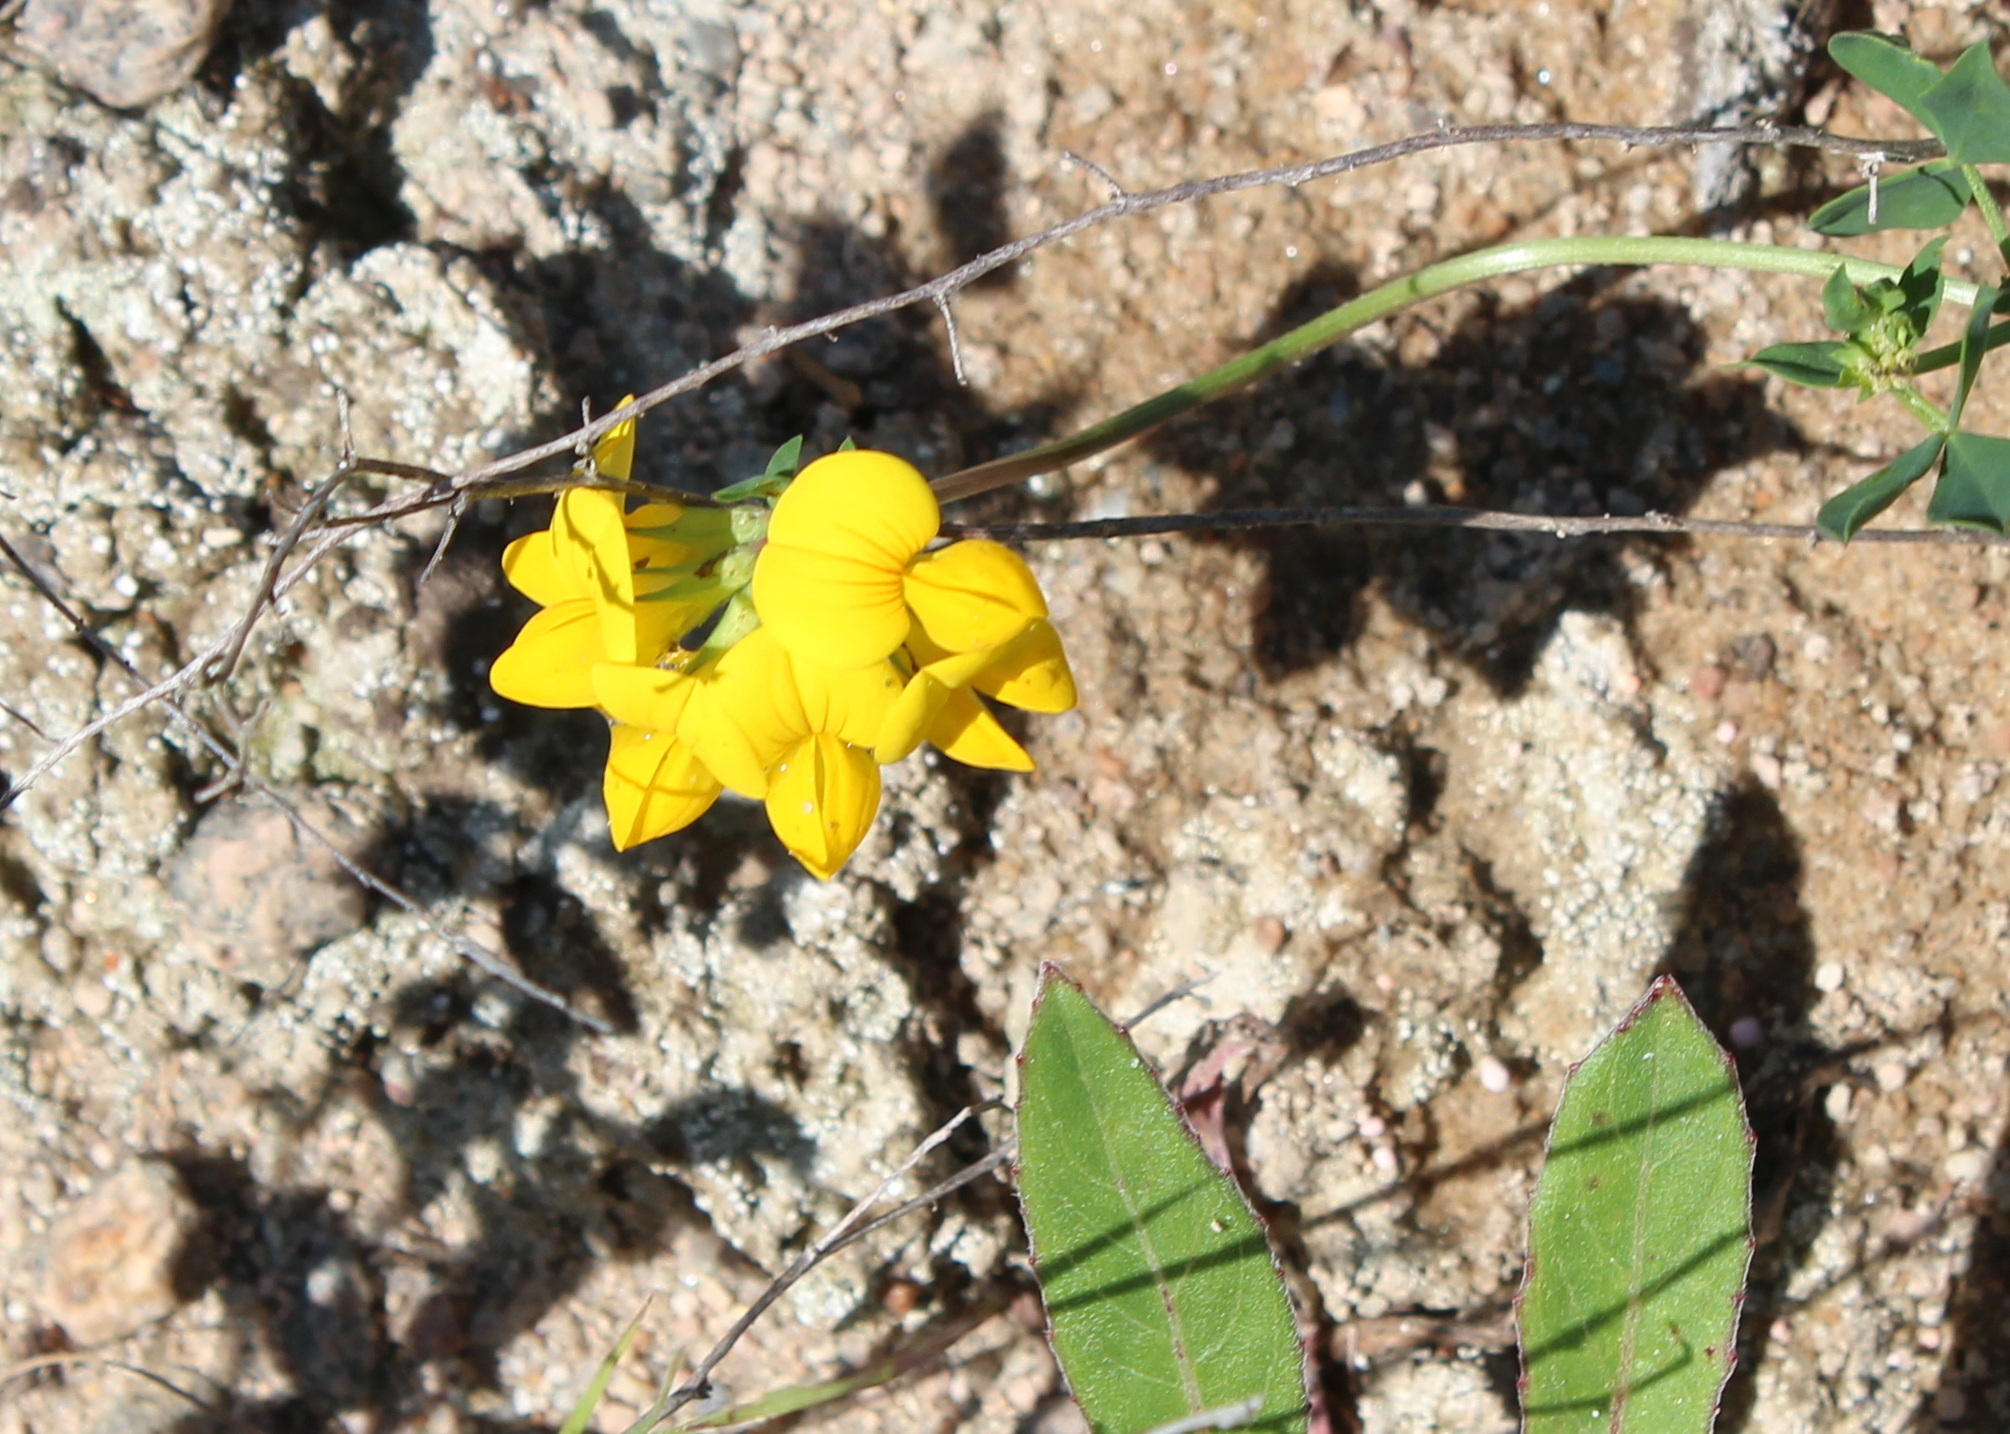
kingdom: Plantae
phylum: Tracheophyta
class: Magnoliopsida
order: Fabales
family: Fabaceae
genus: Lotus
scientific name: Lotus corniculatus
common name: Common bird's-foot-trefoil
